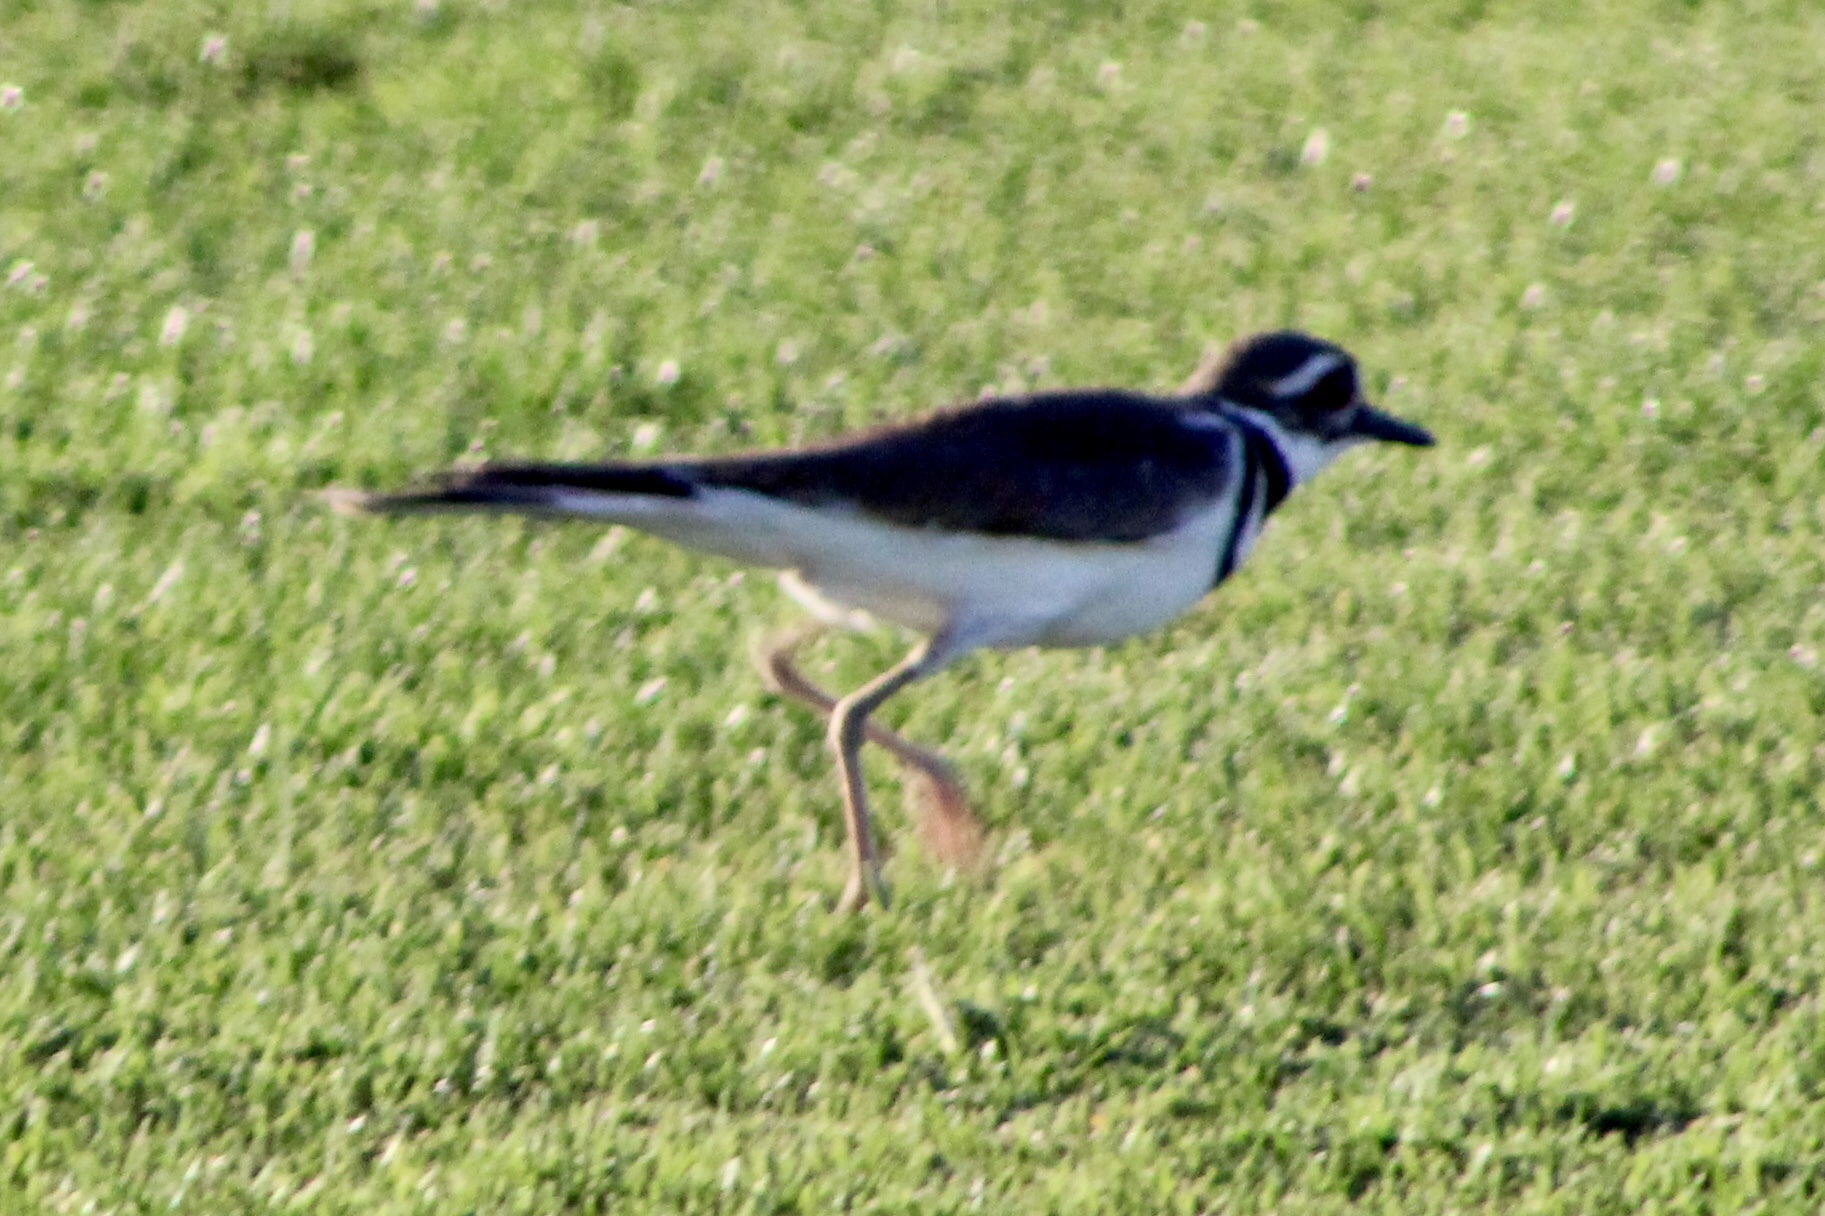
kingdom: Animalia
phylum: Chordata
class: Aves
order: Charadriiformes
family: Charadriidae
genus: Charadrius
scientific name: Charadrius vociferus
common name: Killdeer
